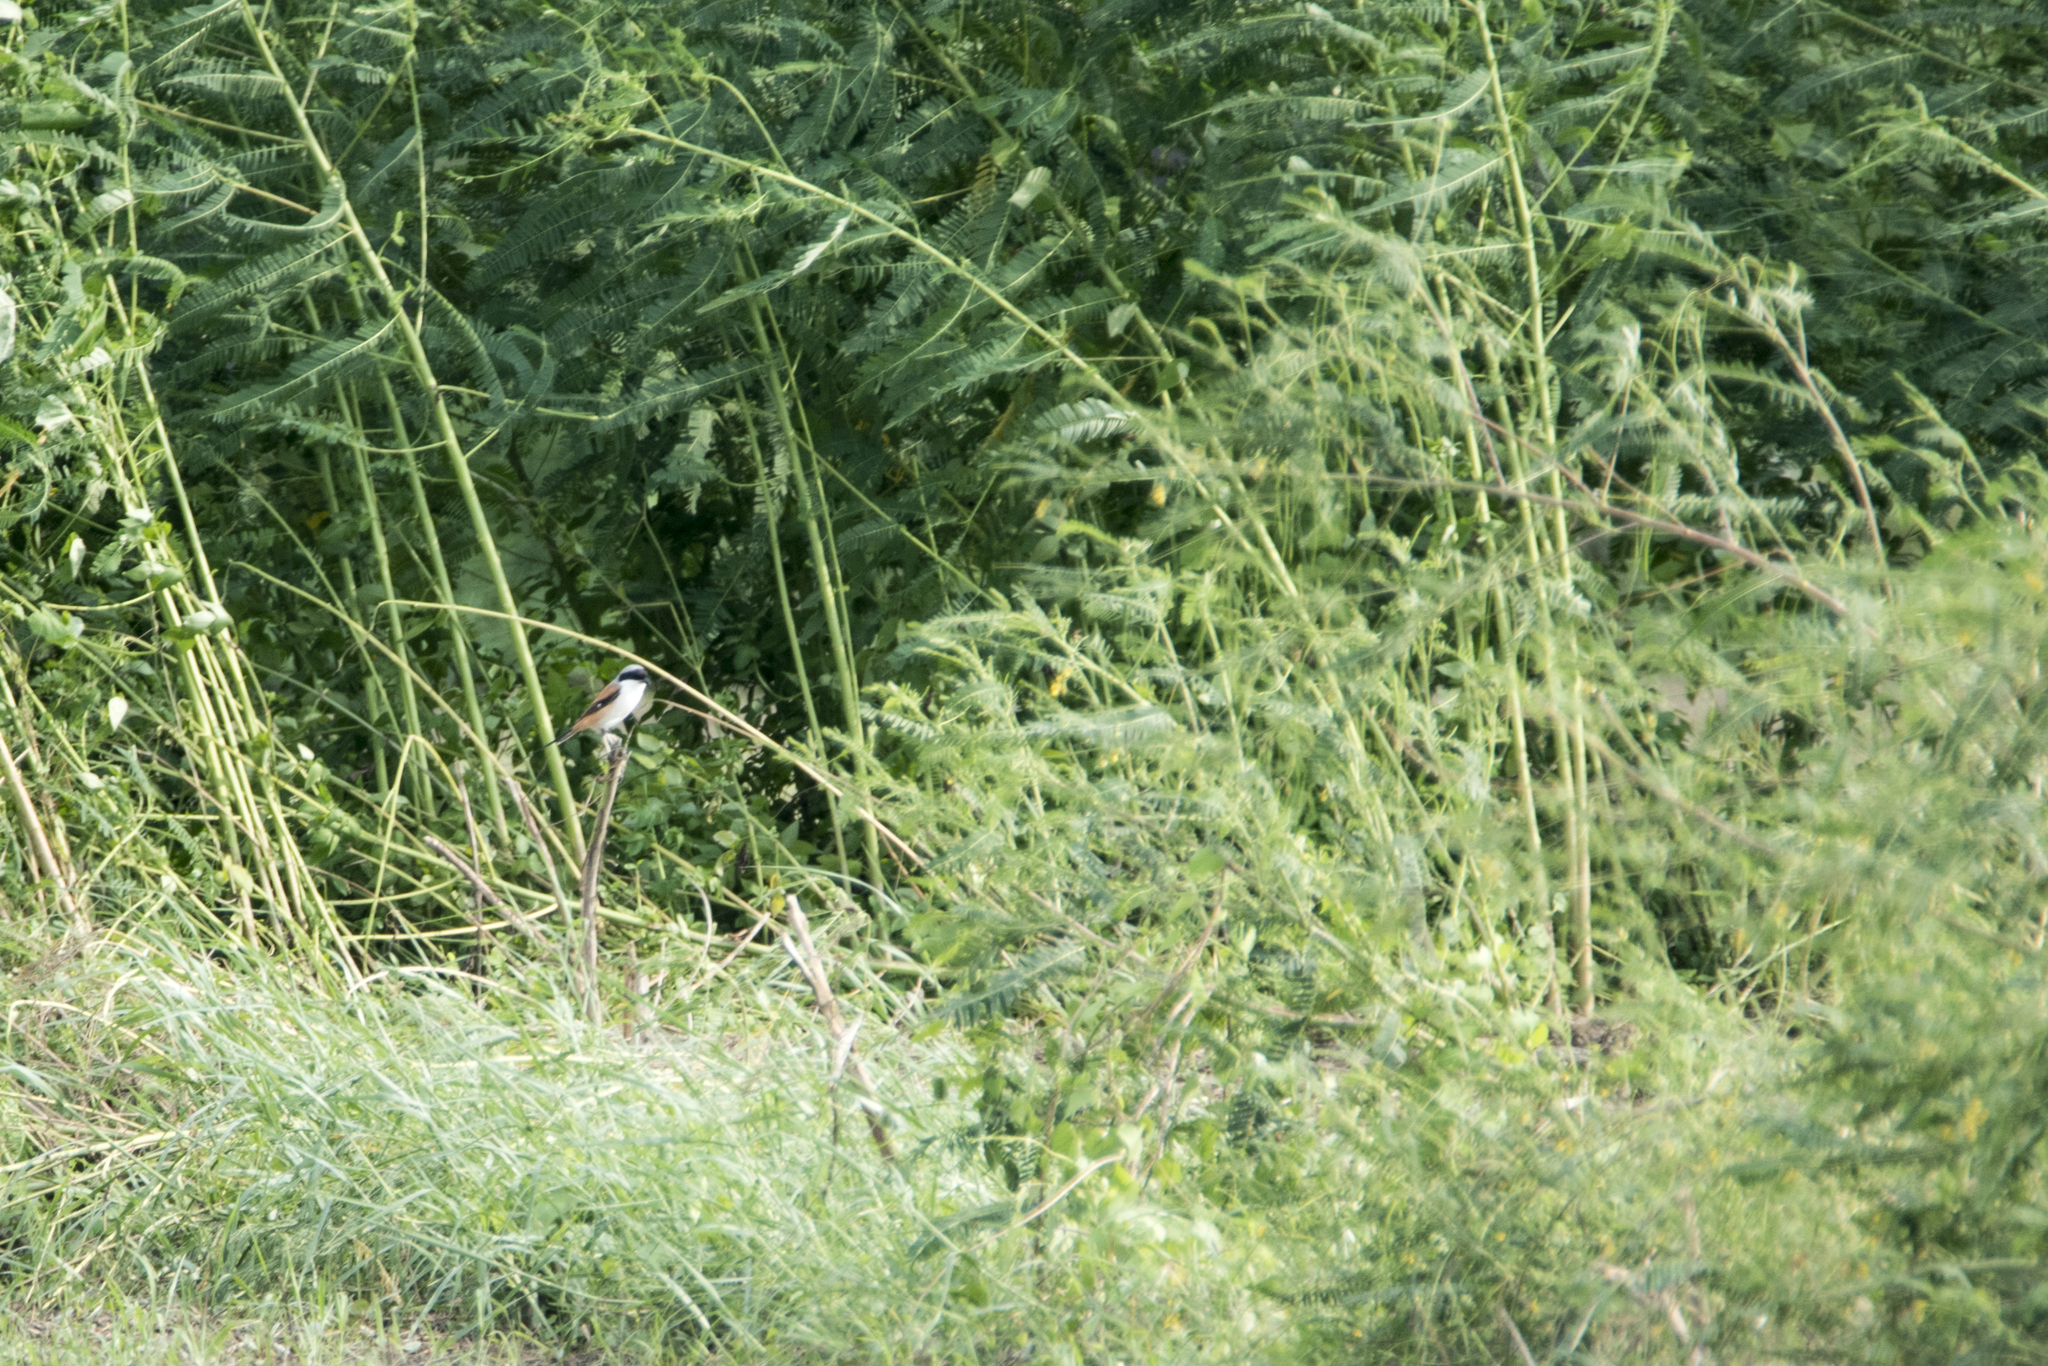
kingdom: Animalia
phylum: Chordata
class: Aves
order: Passeriformes
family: Laniidae
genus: Lanius
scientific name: Lanius schach
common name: Long-tailed shrike
